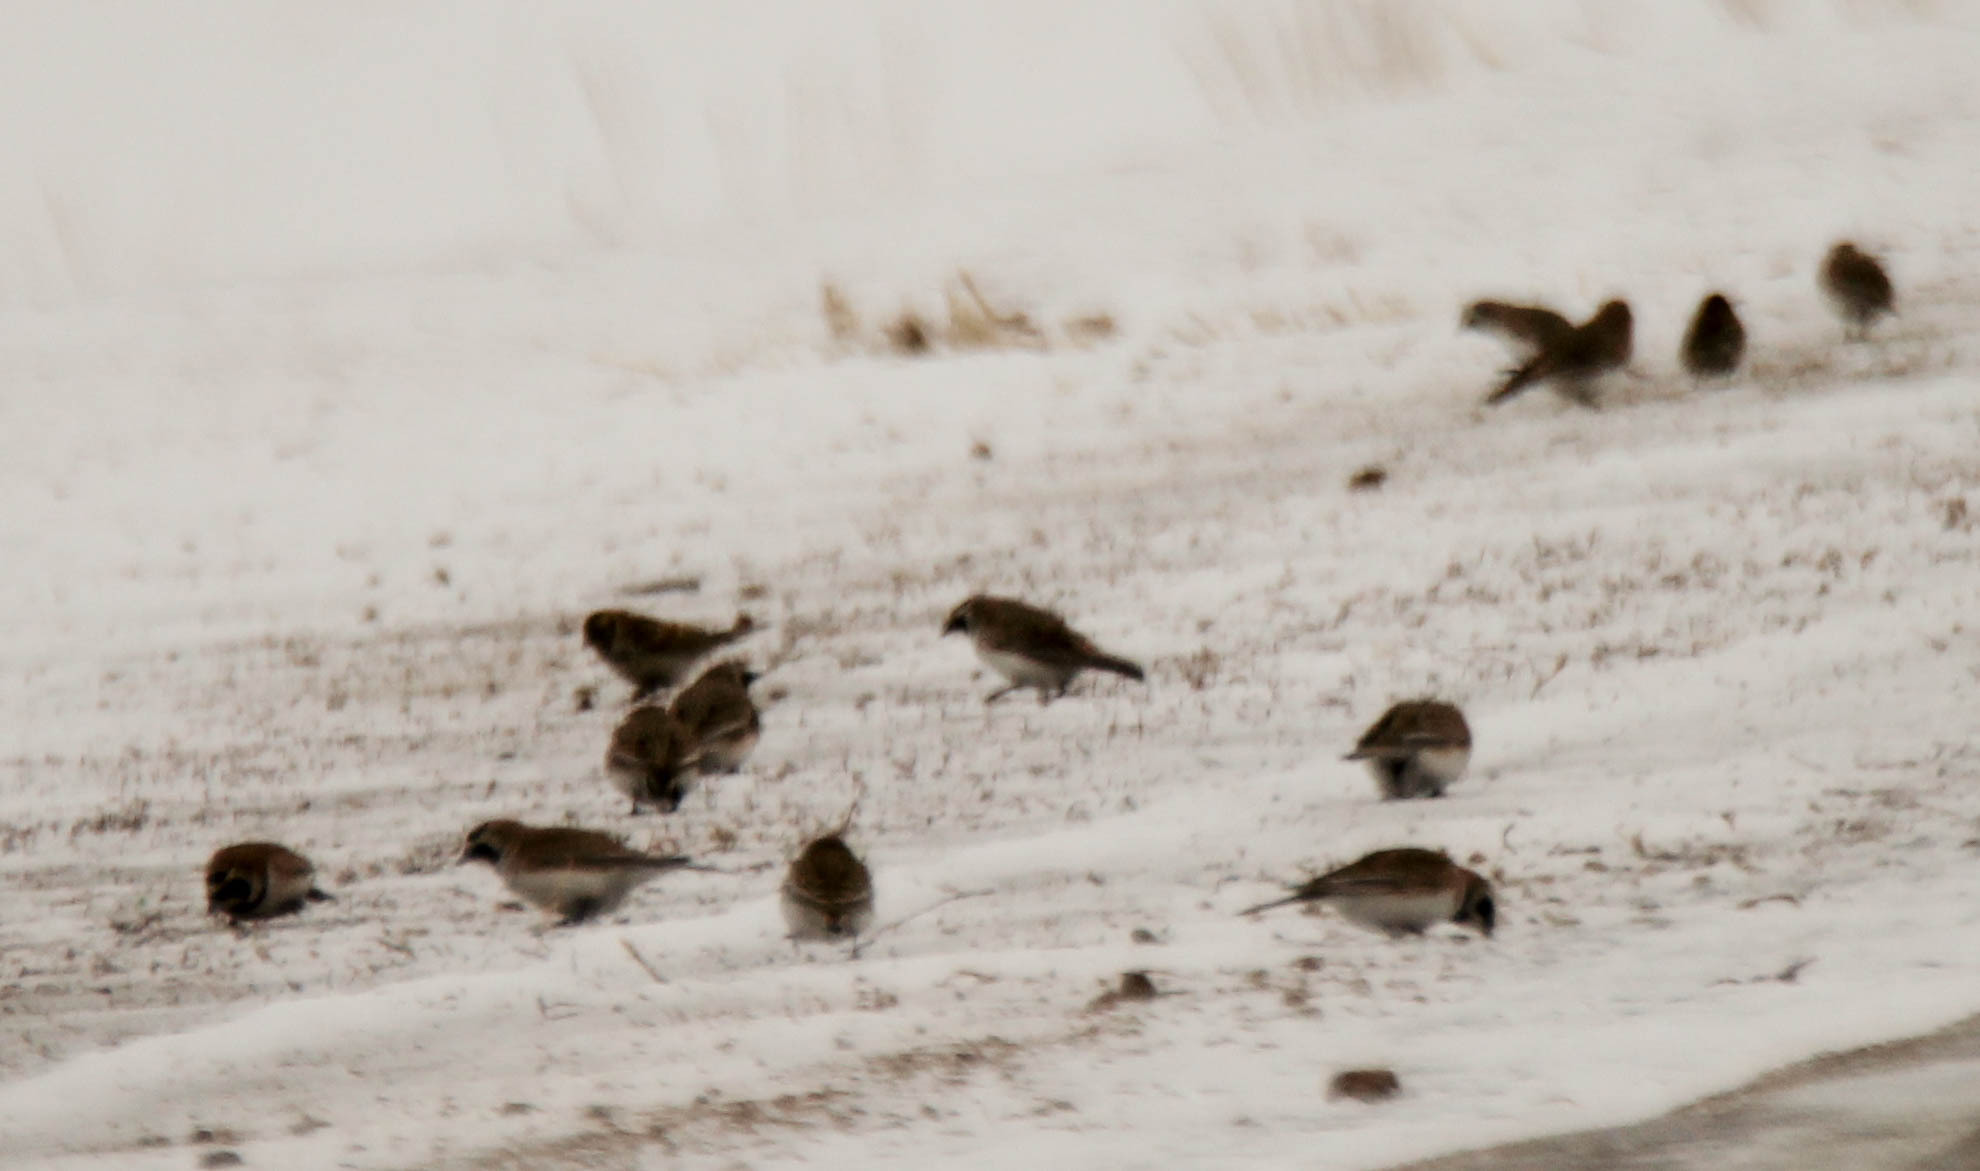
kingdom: Animalia
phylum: Chordata
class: Aves
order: Passeriformes
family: Alaudidae
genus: Eremophila
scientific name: Eremophila alpestris
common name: Horned lark
